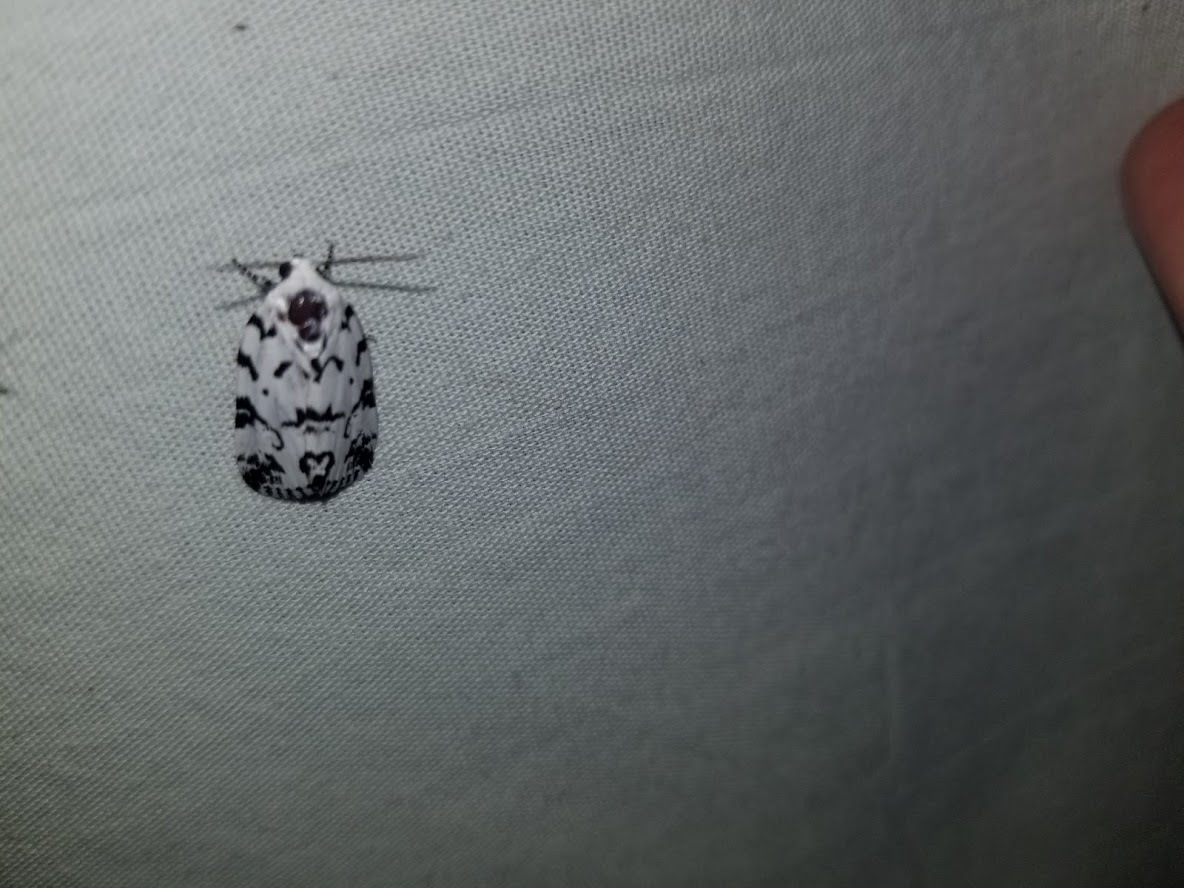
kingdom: Animalia
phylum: Arthropoda
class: Insecta
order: Lepidoptera
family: Noctuidae
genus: Polygrammate
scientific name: Polygrammate hebraeicum
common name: Hebrew moth
